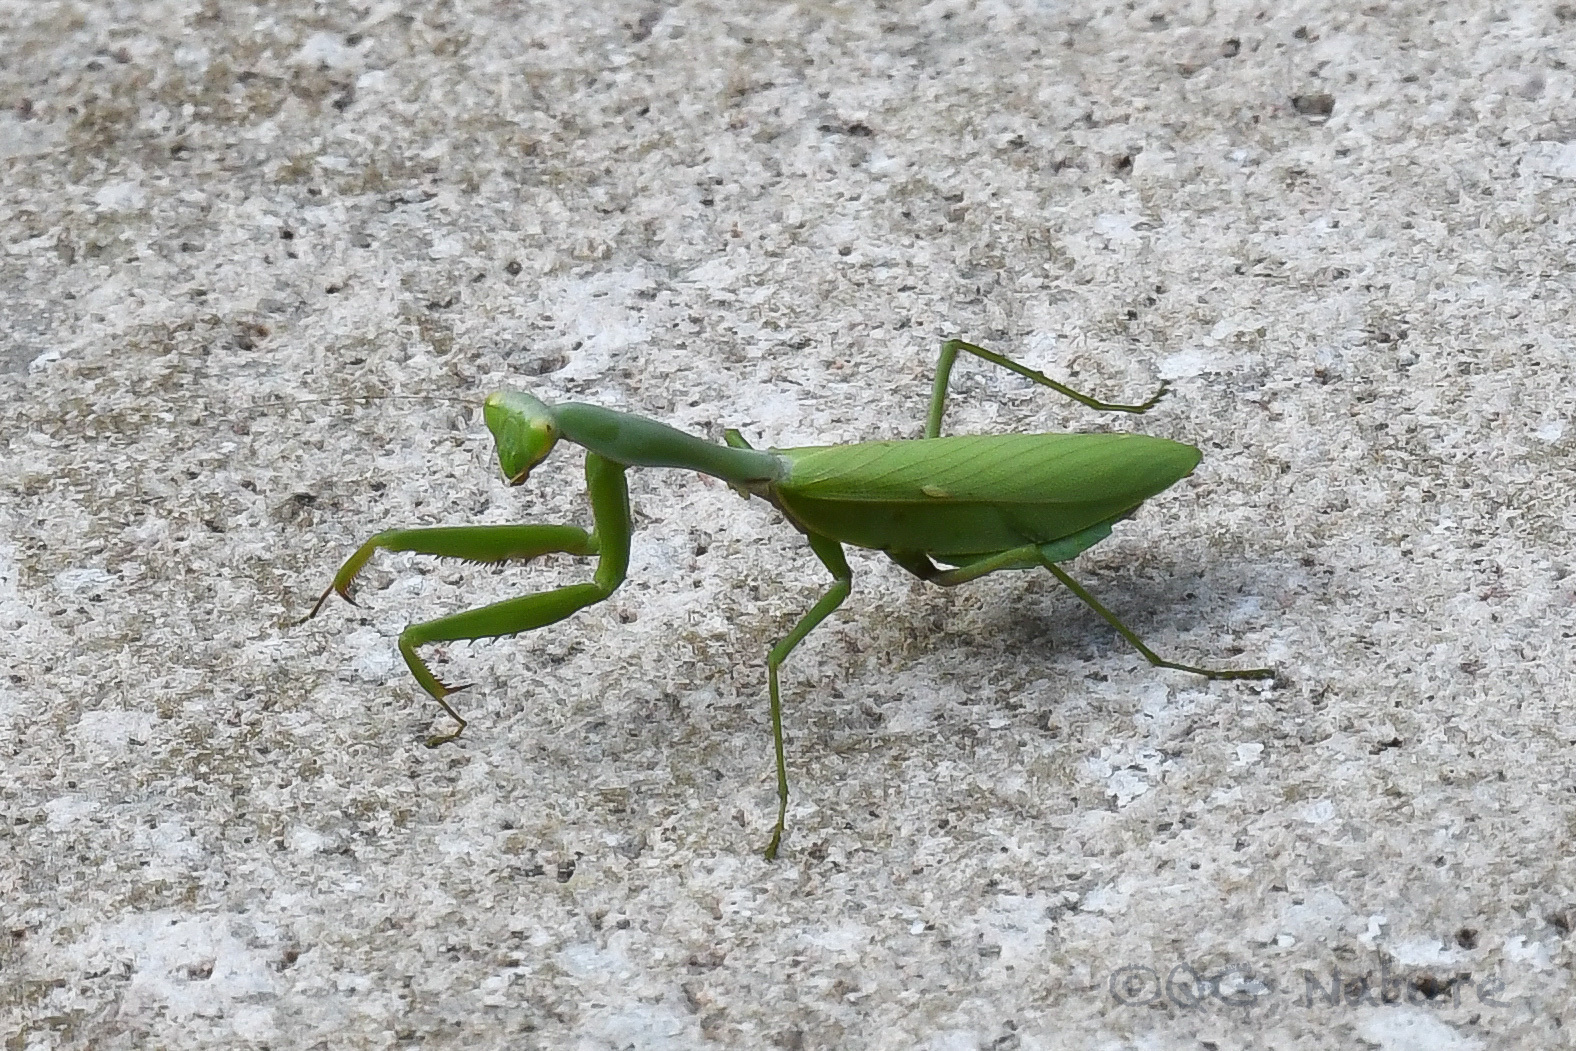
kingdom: Animalia
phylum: Arthropoda
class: Insecta
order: Mantodea
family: Mantidae
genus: Hierodula
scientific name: Hierodula chinensis
